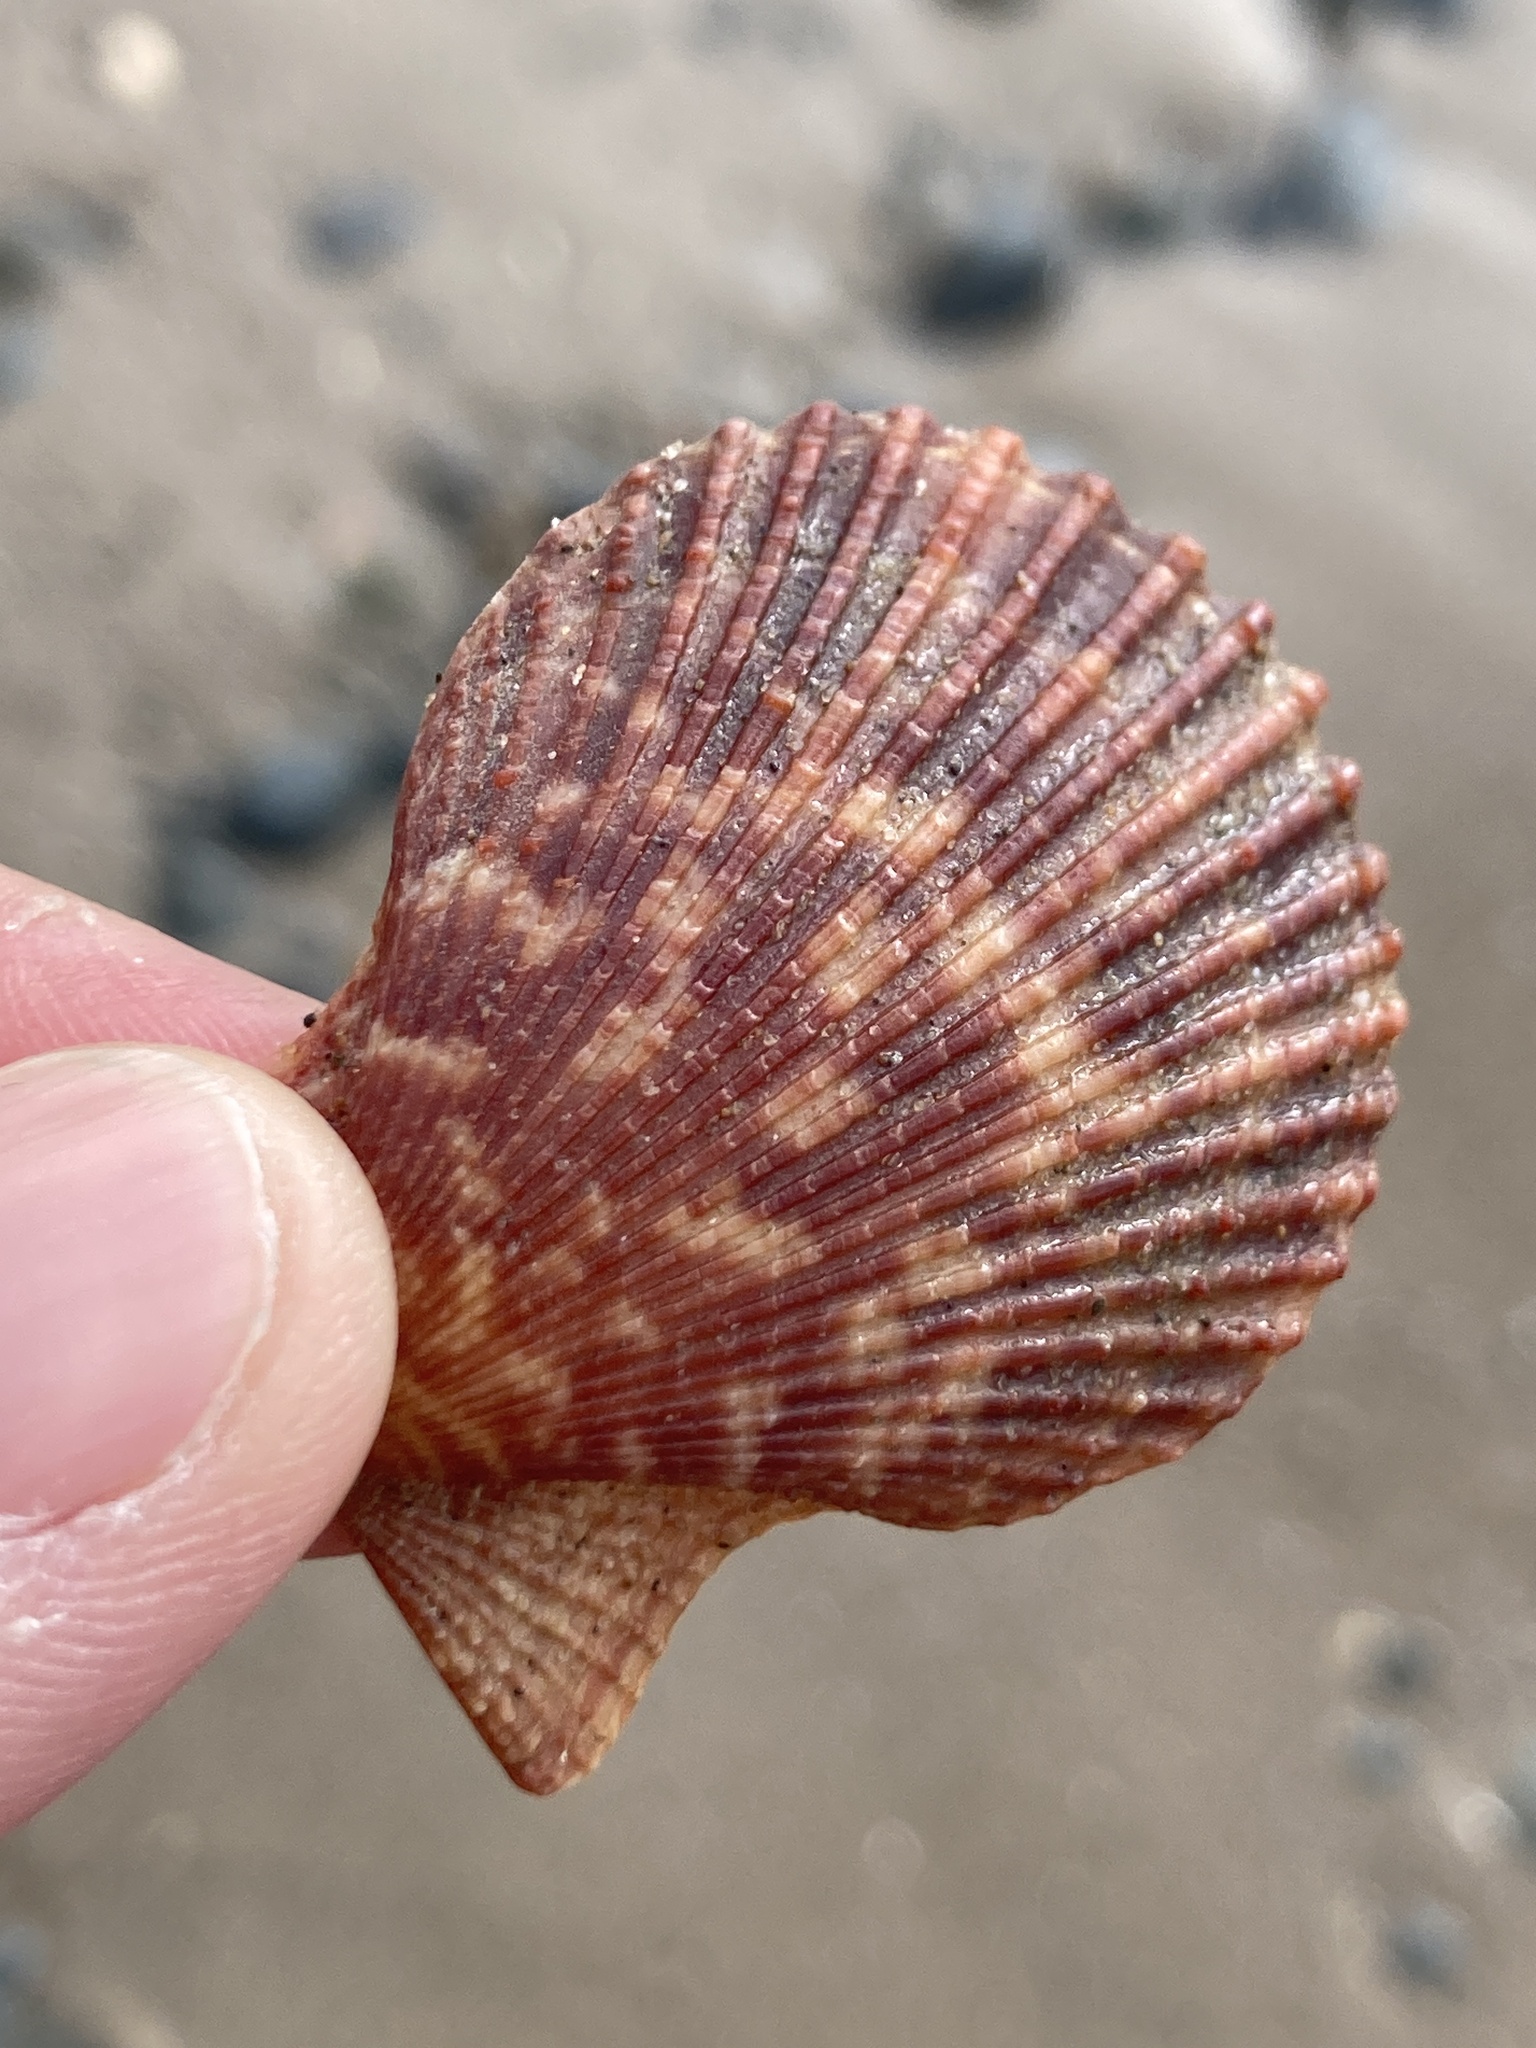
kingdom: Animalia
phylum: Mollusca
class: Bivalvia
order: Pectinida
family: Pectinidae
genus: Mimachlamys
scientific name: Mimachlamys varia
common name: Variegated scallop
